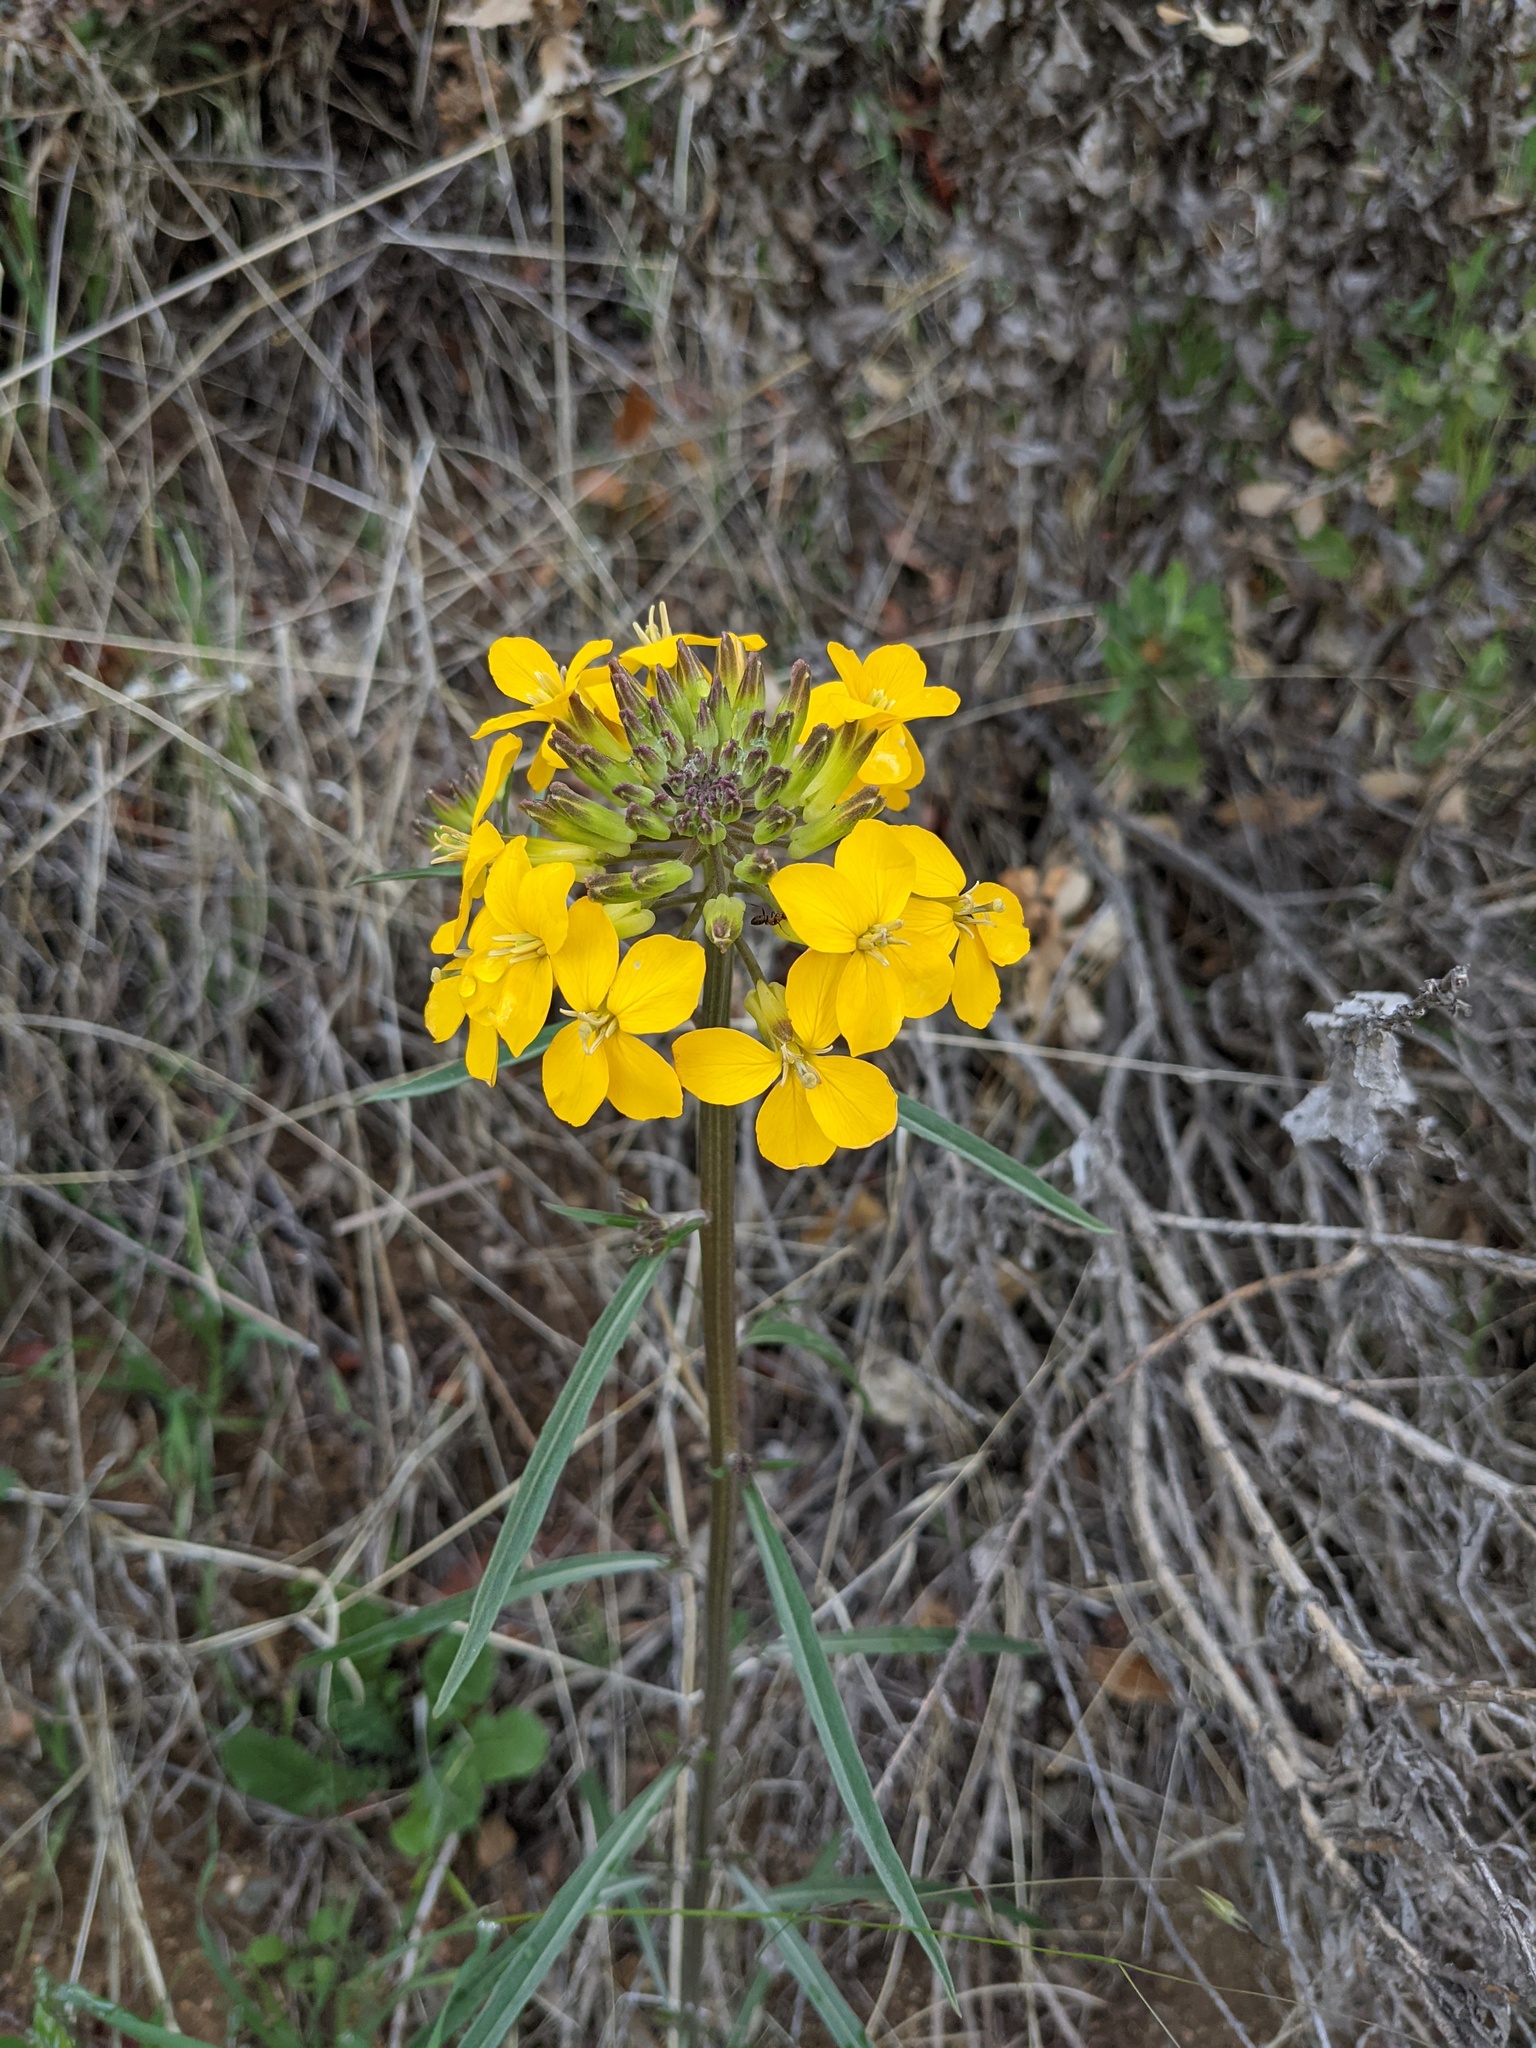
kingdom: Plantae
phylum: Tracheophyta
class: Magnoliopsida
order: Brassicales
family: Brassicaceae
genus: Erysimum
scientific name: Erysimum capitatum
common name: Western wallflower
